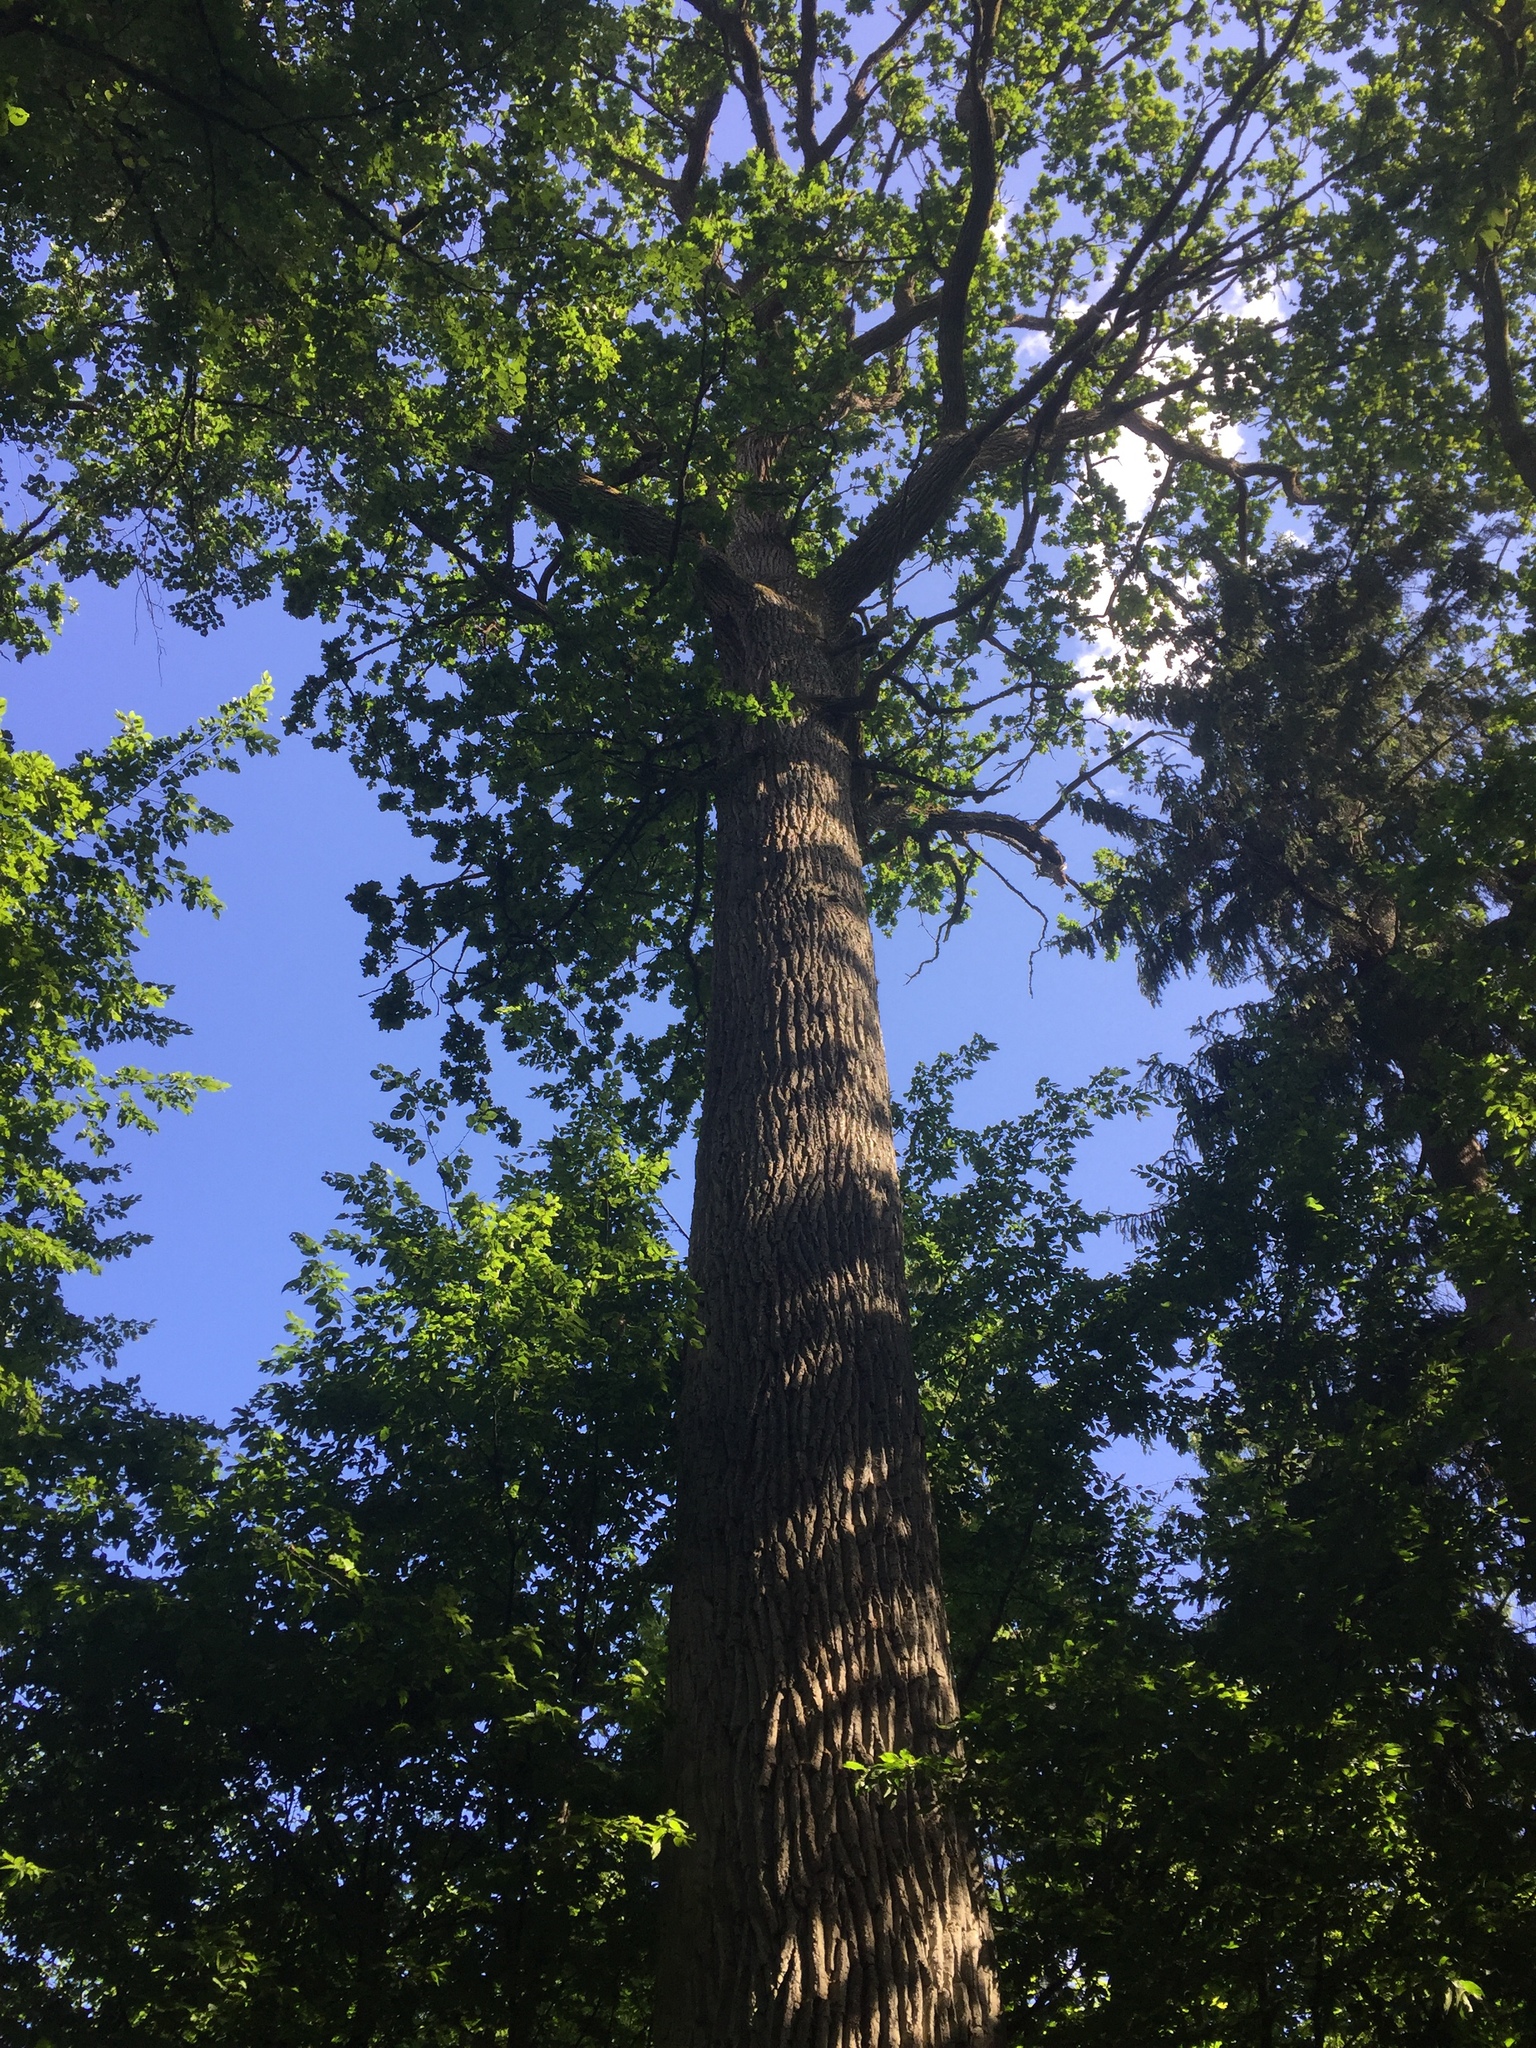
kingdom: Plantae
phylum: Tracheophyta
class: Magnoliopsida
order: Fagales
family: Fagaceae
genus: Quercus
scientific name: Quercus robur
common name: Pedunculate oak
